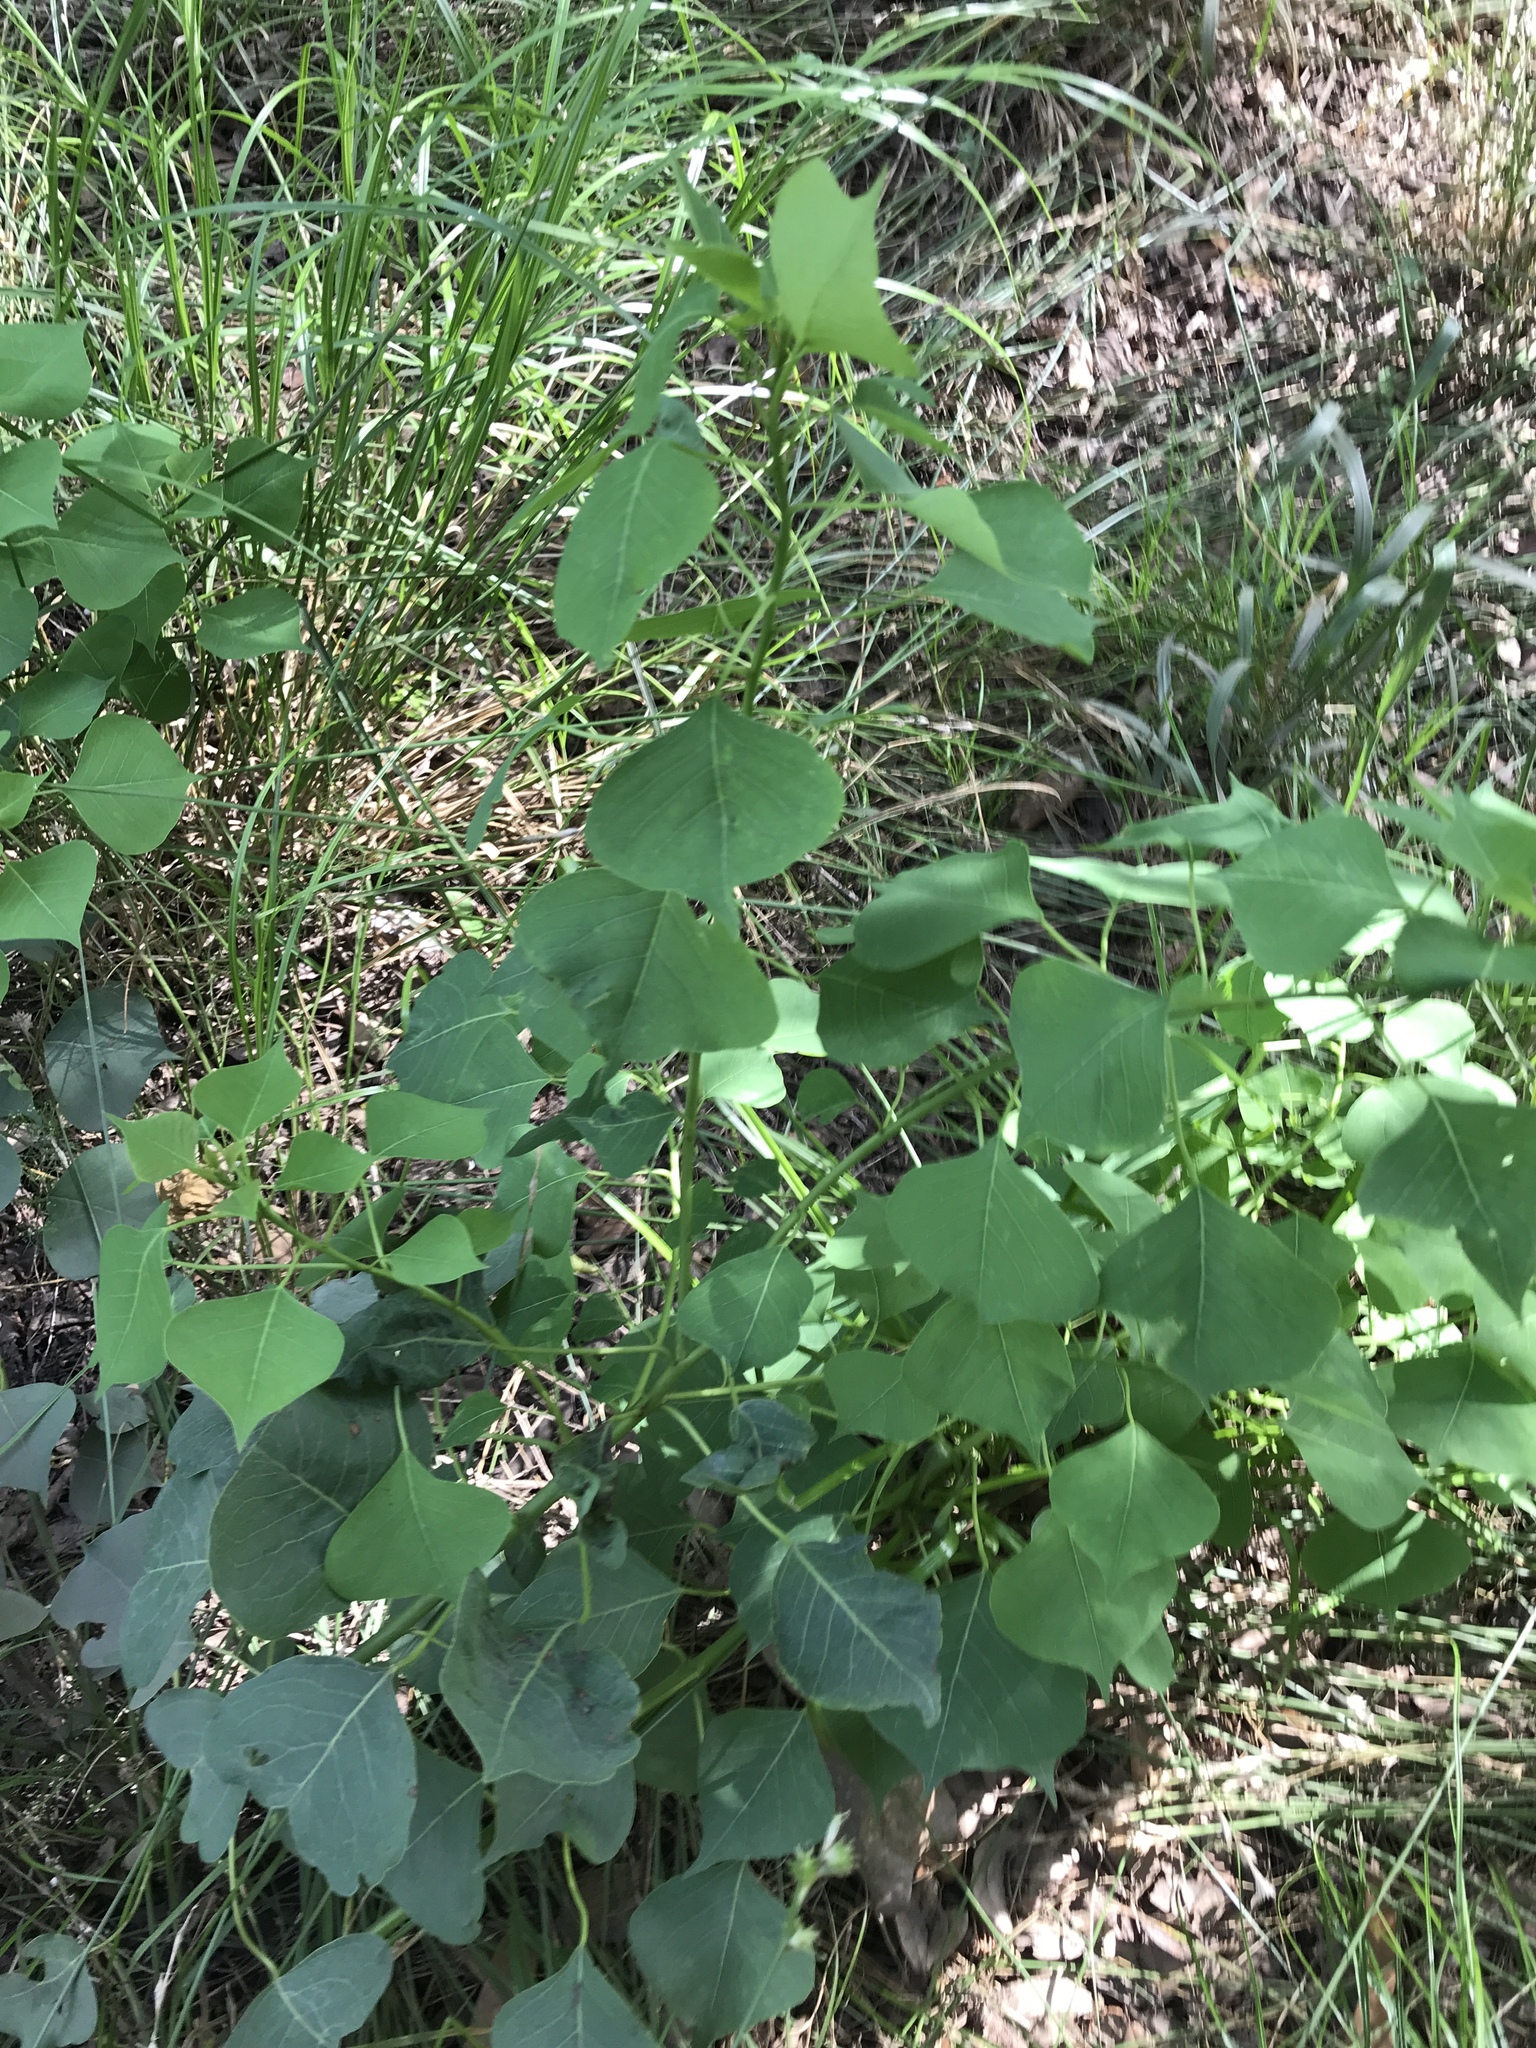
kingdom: Plantae
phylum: Tracheophyta
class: Magnoliopsida
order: Malpighiales
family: Euphorbiaceae
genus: Triadica
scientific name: Triadica sebifera
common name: Chinese tallow
